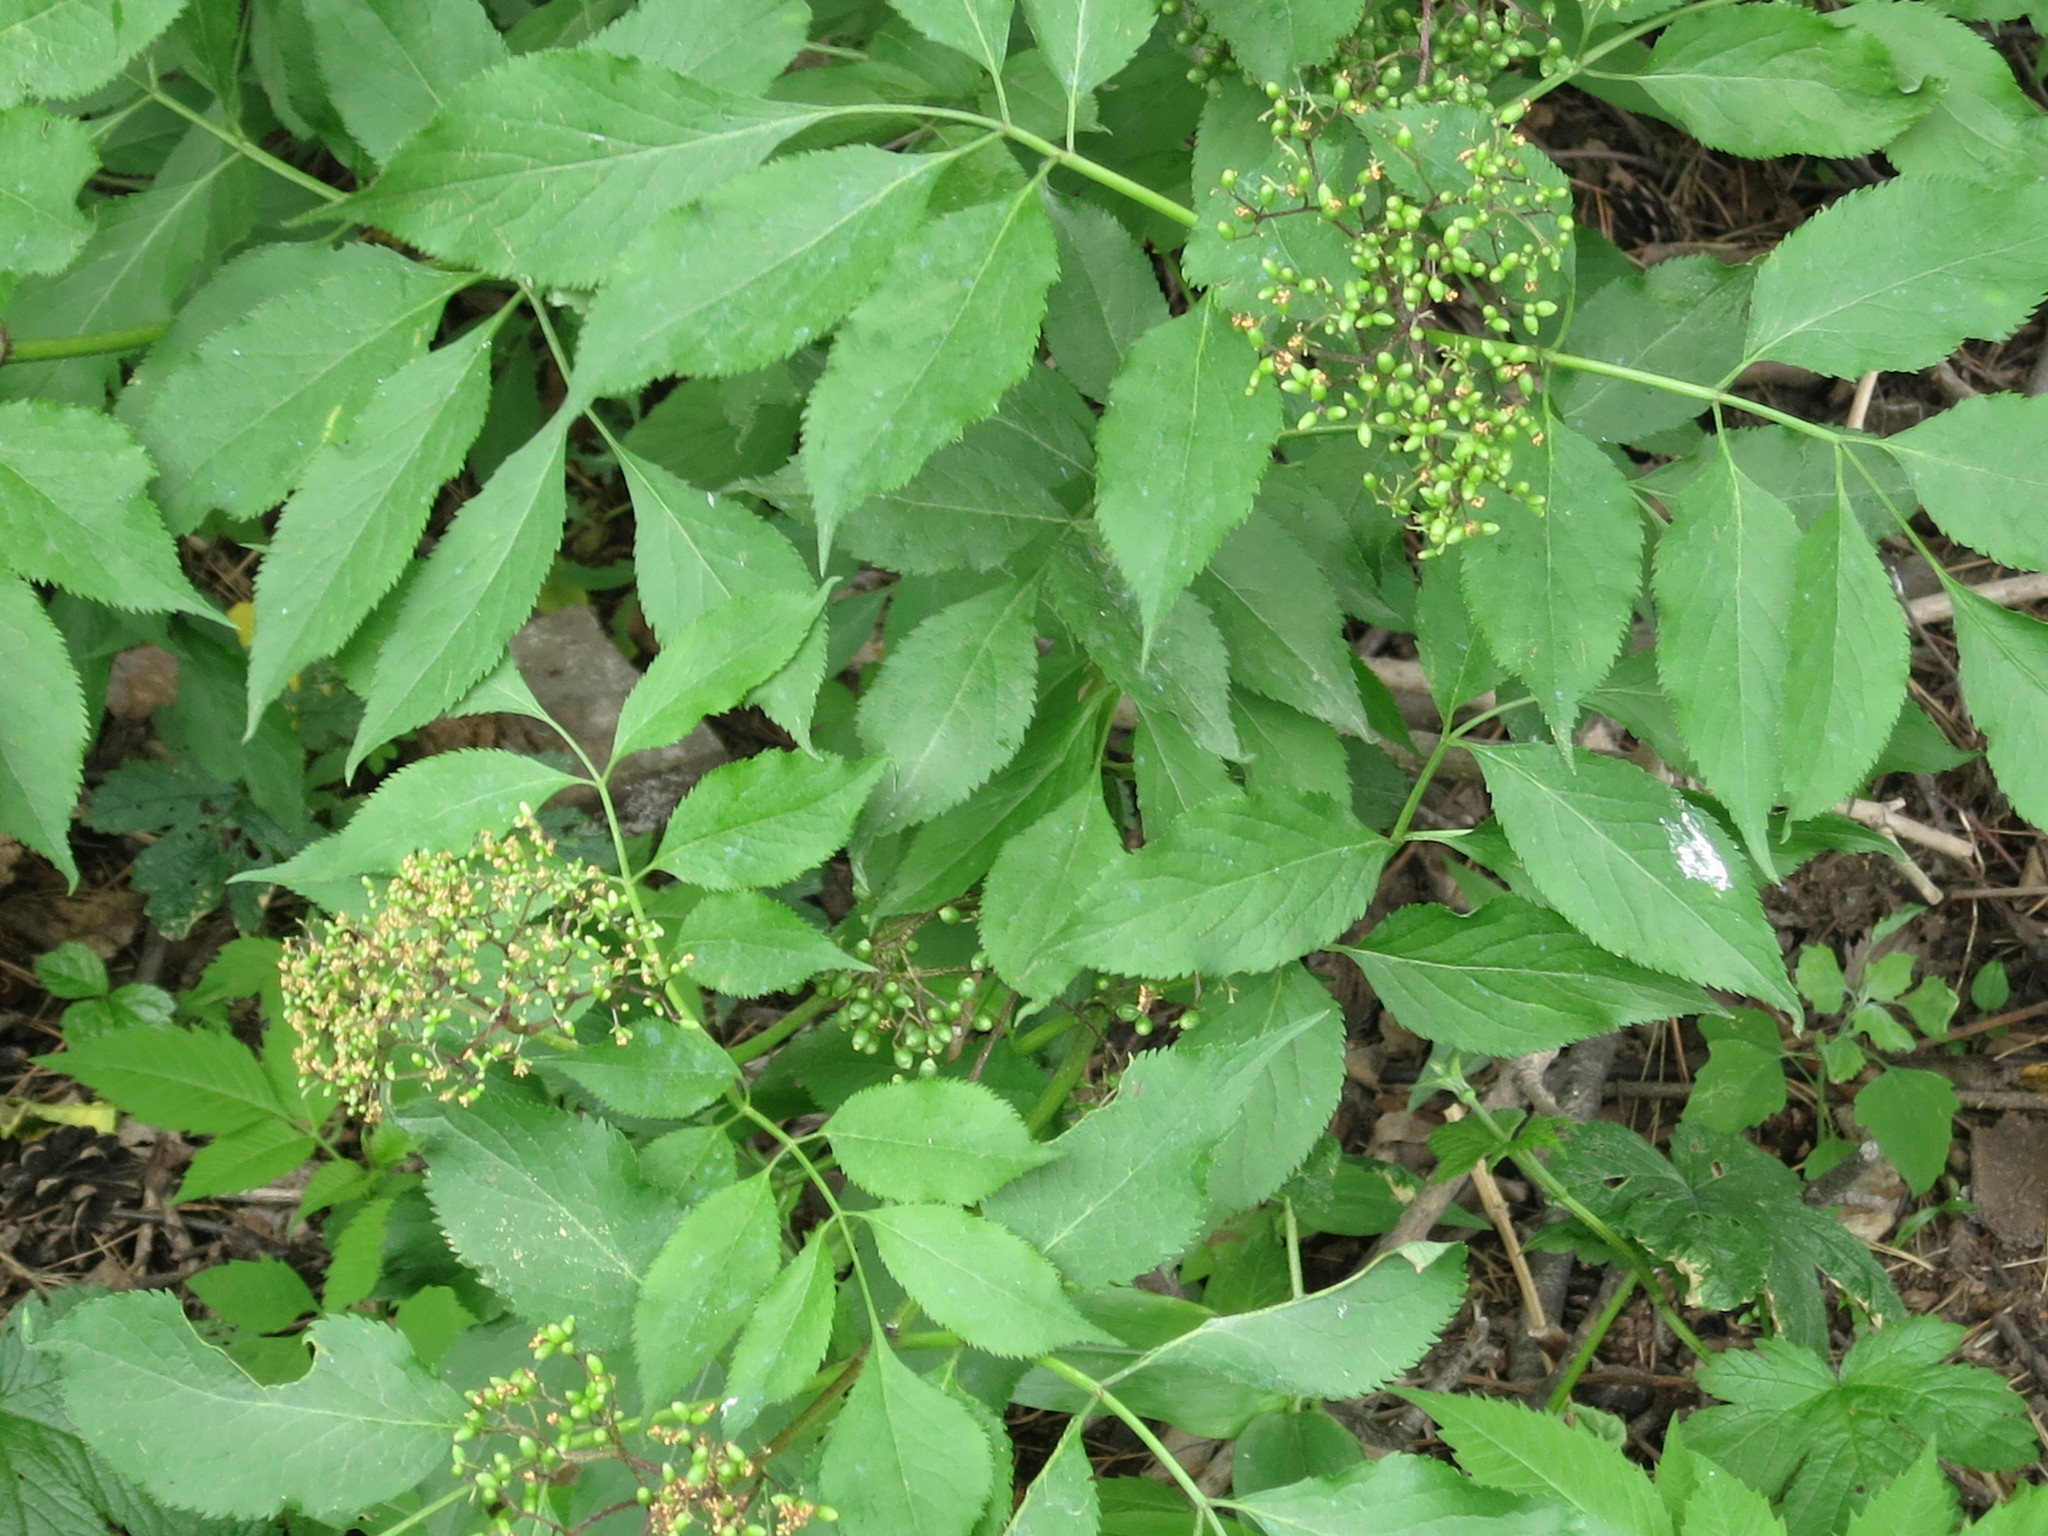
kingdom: Plantae
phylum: Tracheophyta
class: Magnoliopsida
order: Dipsacales
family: Viburnaceae
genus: Sambucus
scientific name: Sambucus williamsii
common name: William's elder
